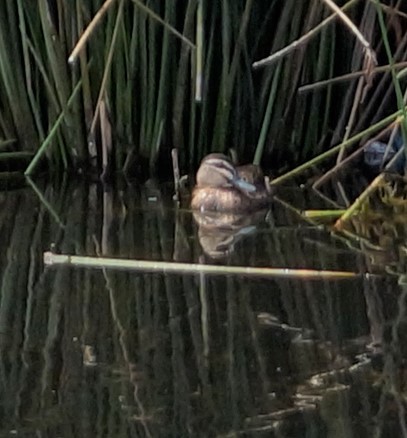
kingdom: Animalia
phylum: Chordata
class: Aves
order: Anseriformes
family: Anatidae
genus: Anas
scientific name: Anas superciliosa
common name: Pacific black duck
